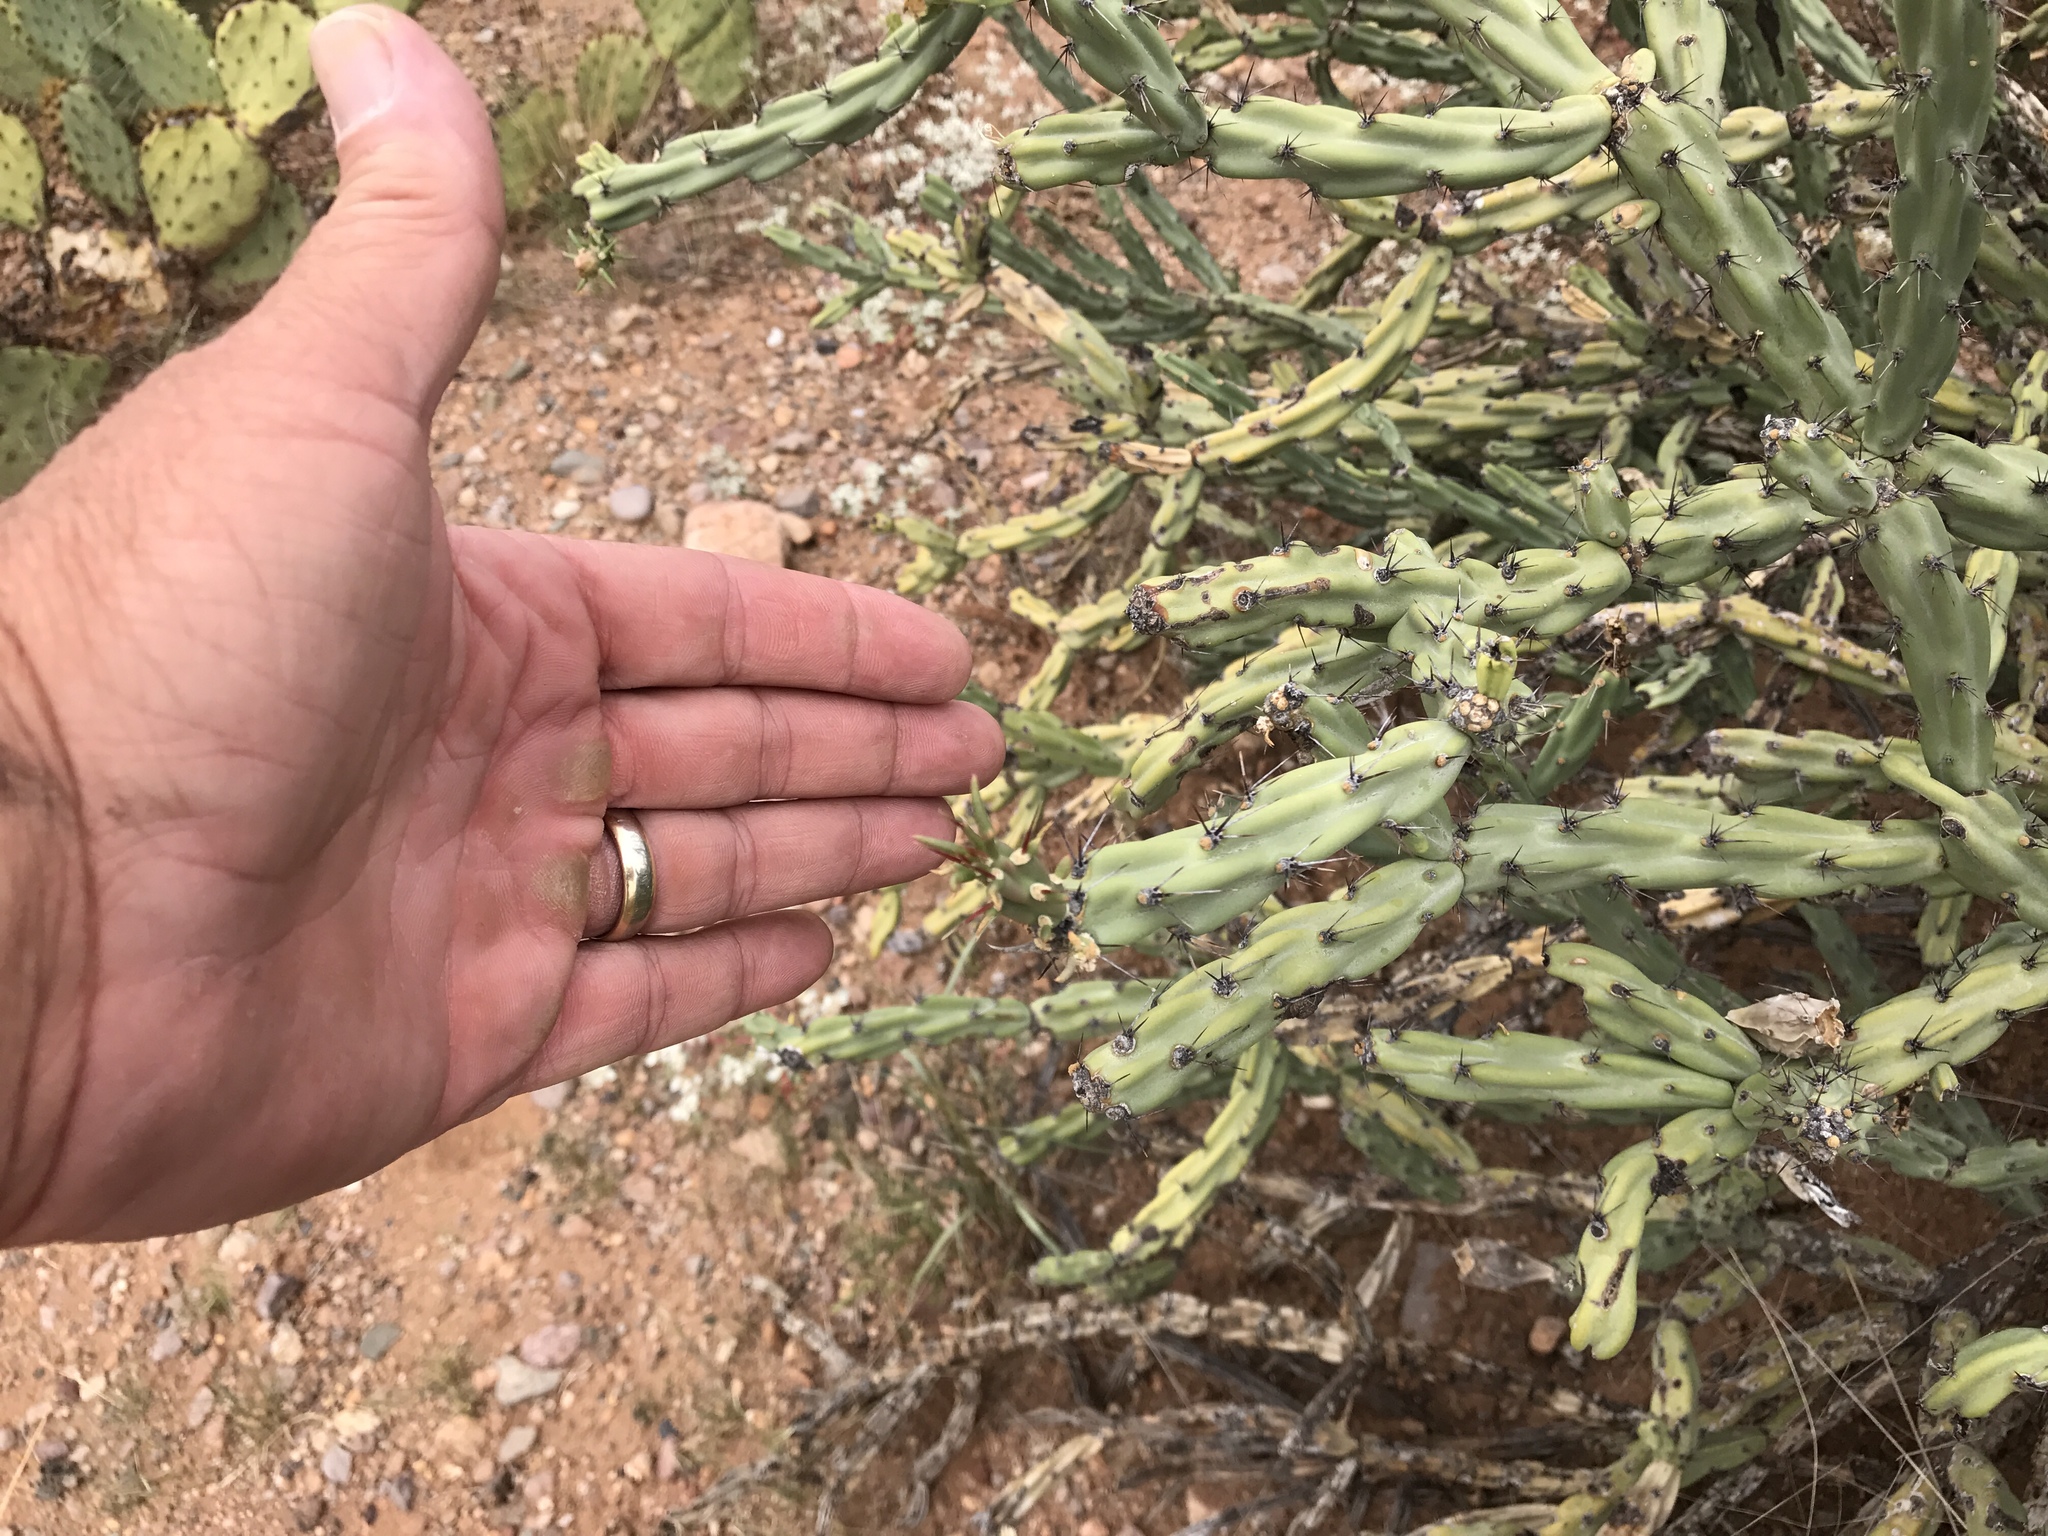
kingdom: Plantae
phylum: Tracheophyta
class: Magnoliopsida
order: Caryophyllales
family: Cactaceae
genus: Cylindropuntia
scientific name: Cylindropuntia acanthocarpa
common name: Buckhorn cholla
